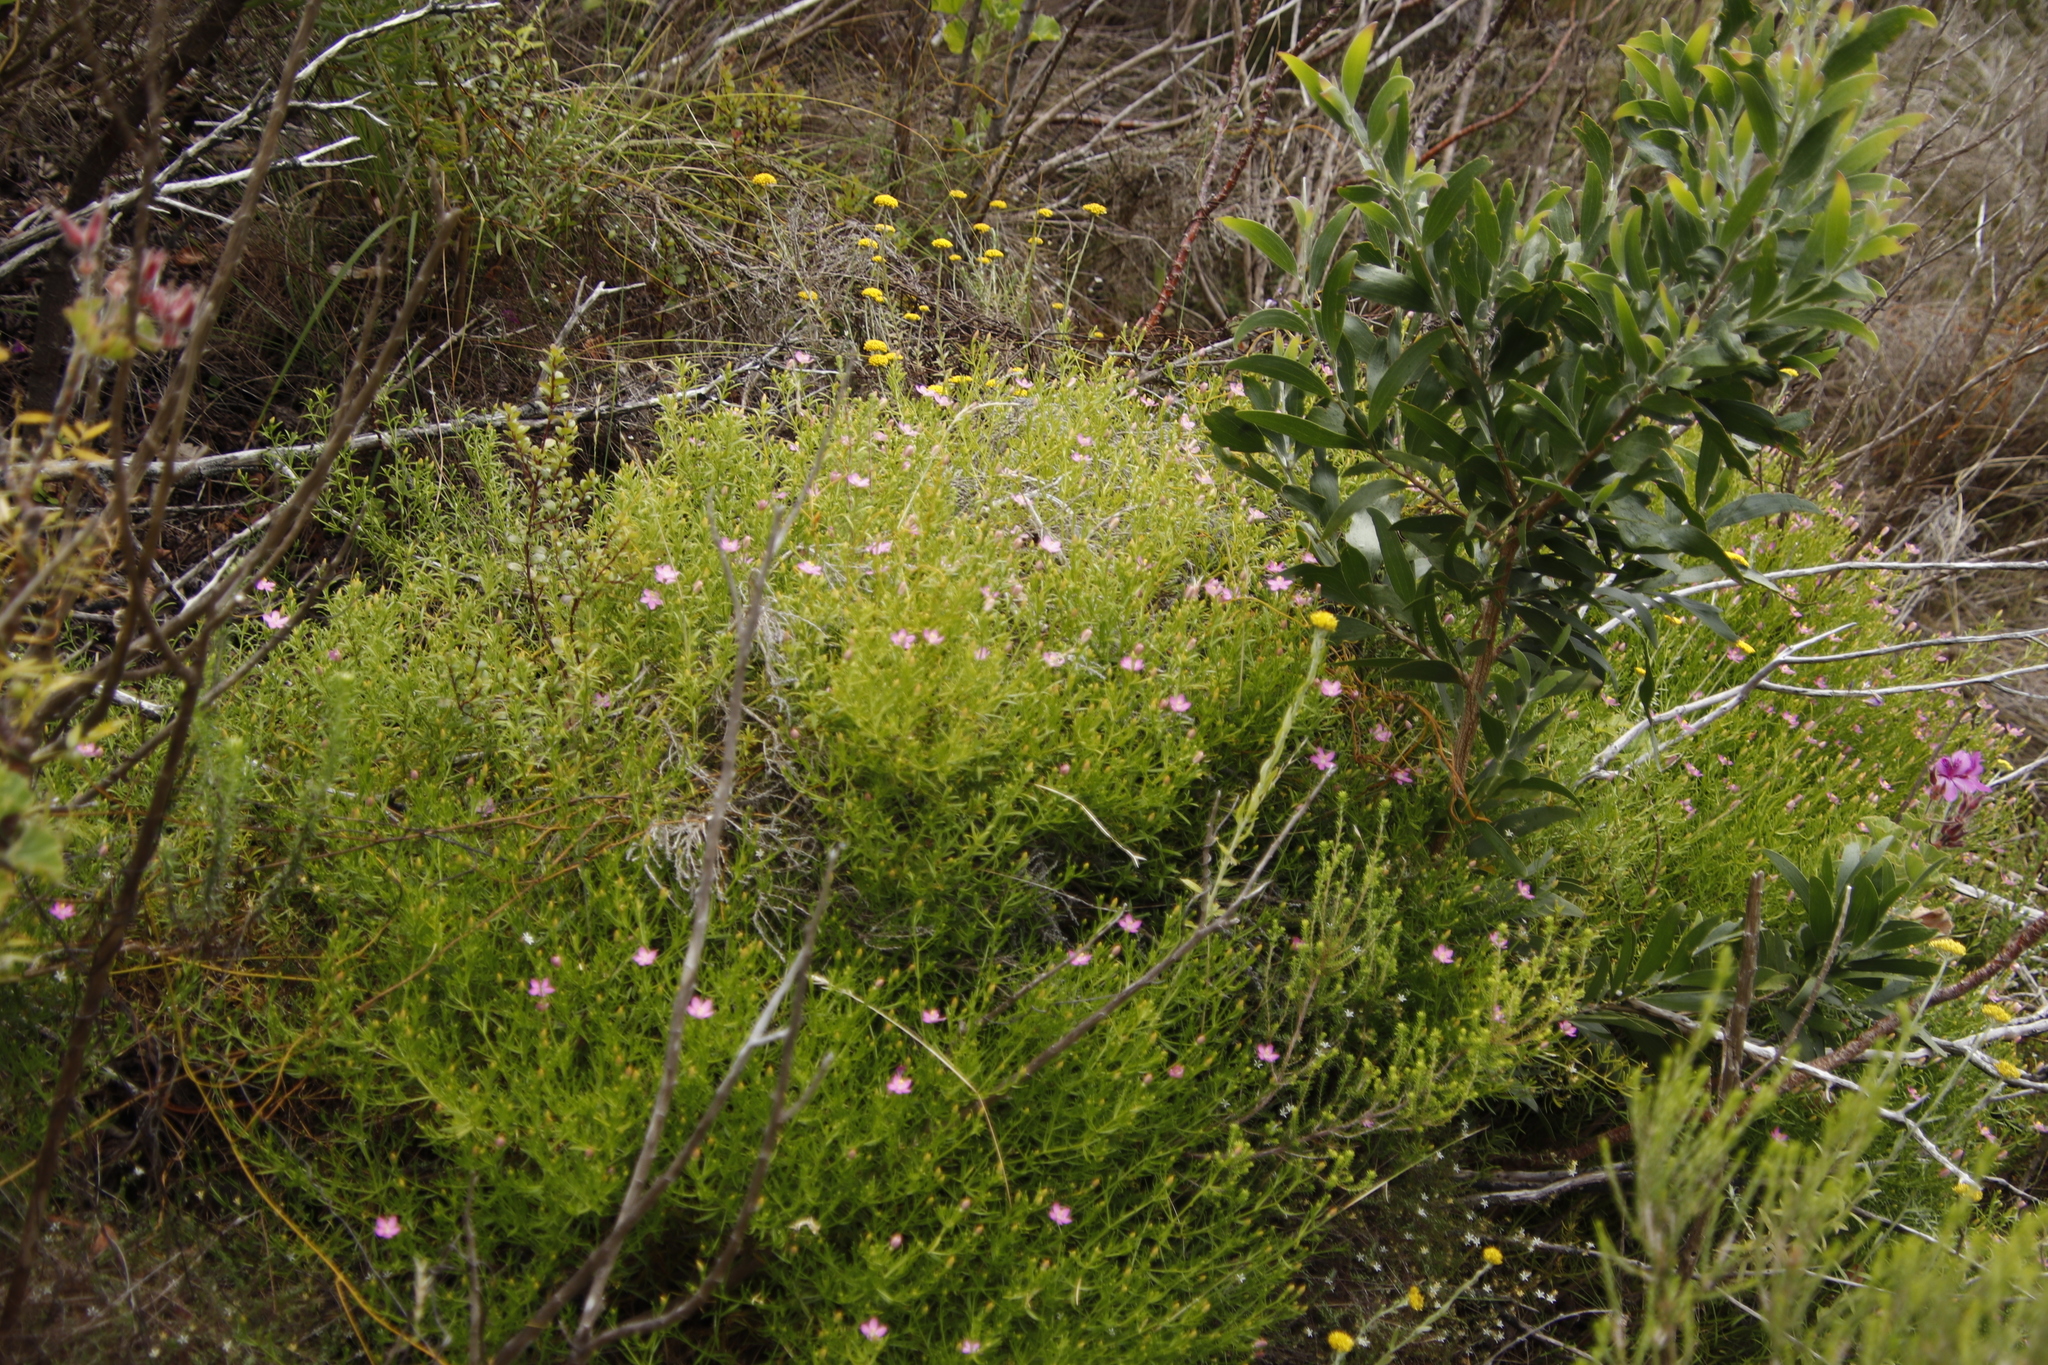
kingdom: Plantae
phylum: Tracheophyta
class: Magnoliopsida
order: Gentianales
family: Gentianaceae
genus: Chironia
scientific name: Chironia baccifera
